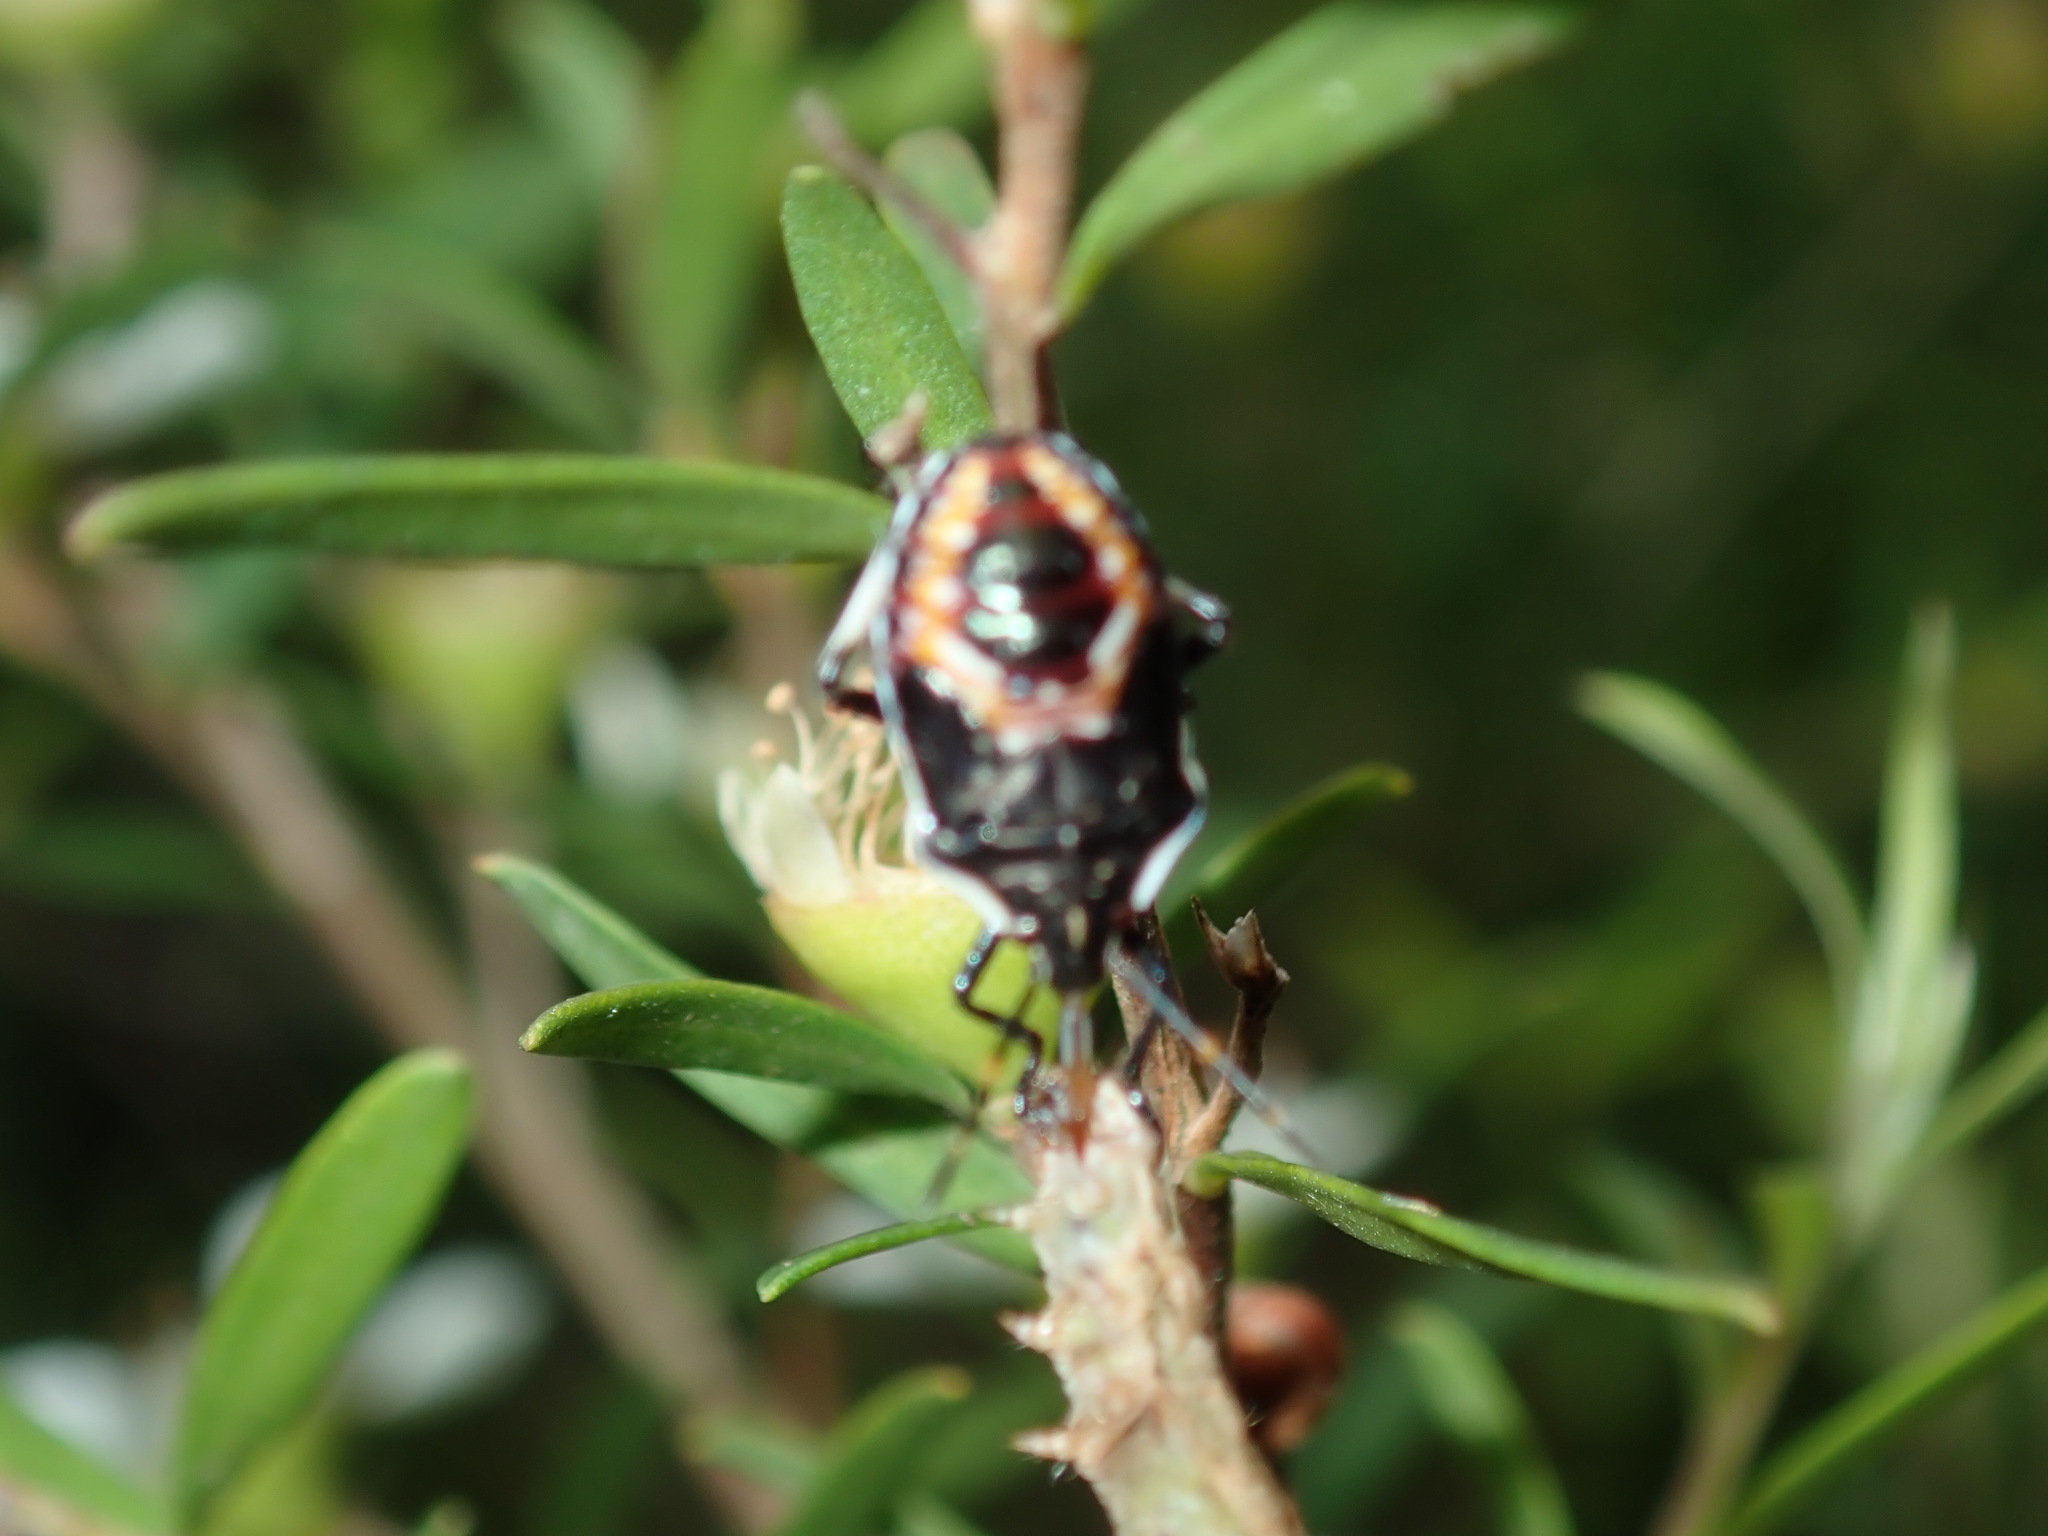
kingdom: Animalia
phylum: Arthropoda
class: Insecta
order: Hemiptera
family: Pentatomidae
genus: Oechalia
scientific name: Oechalia schellenbergii
